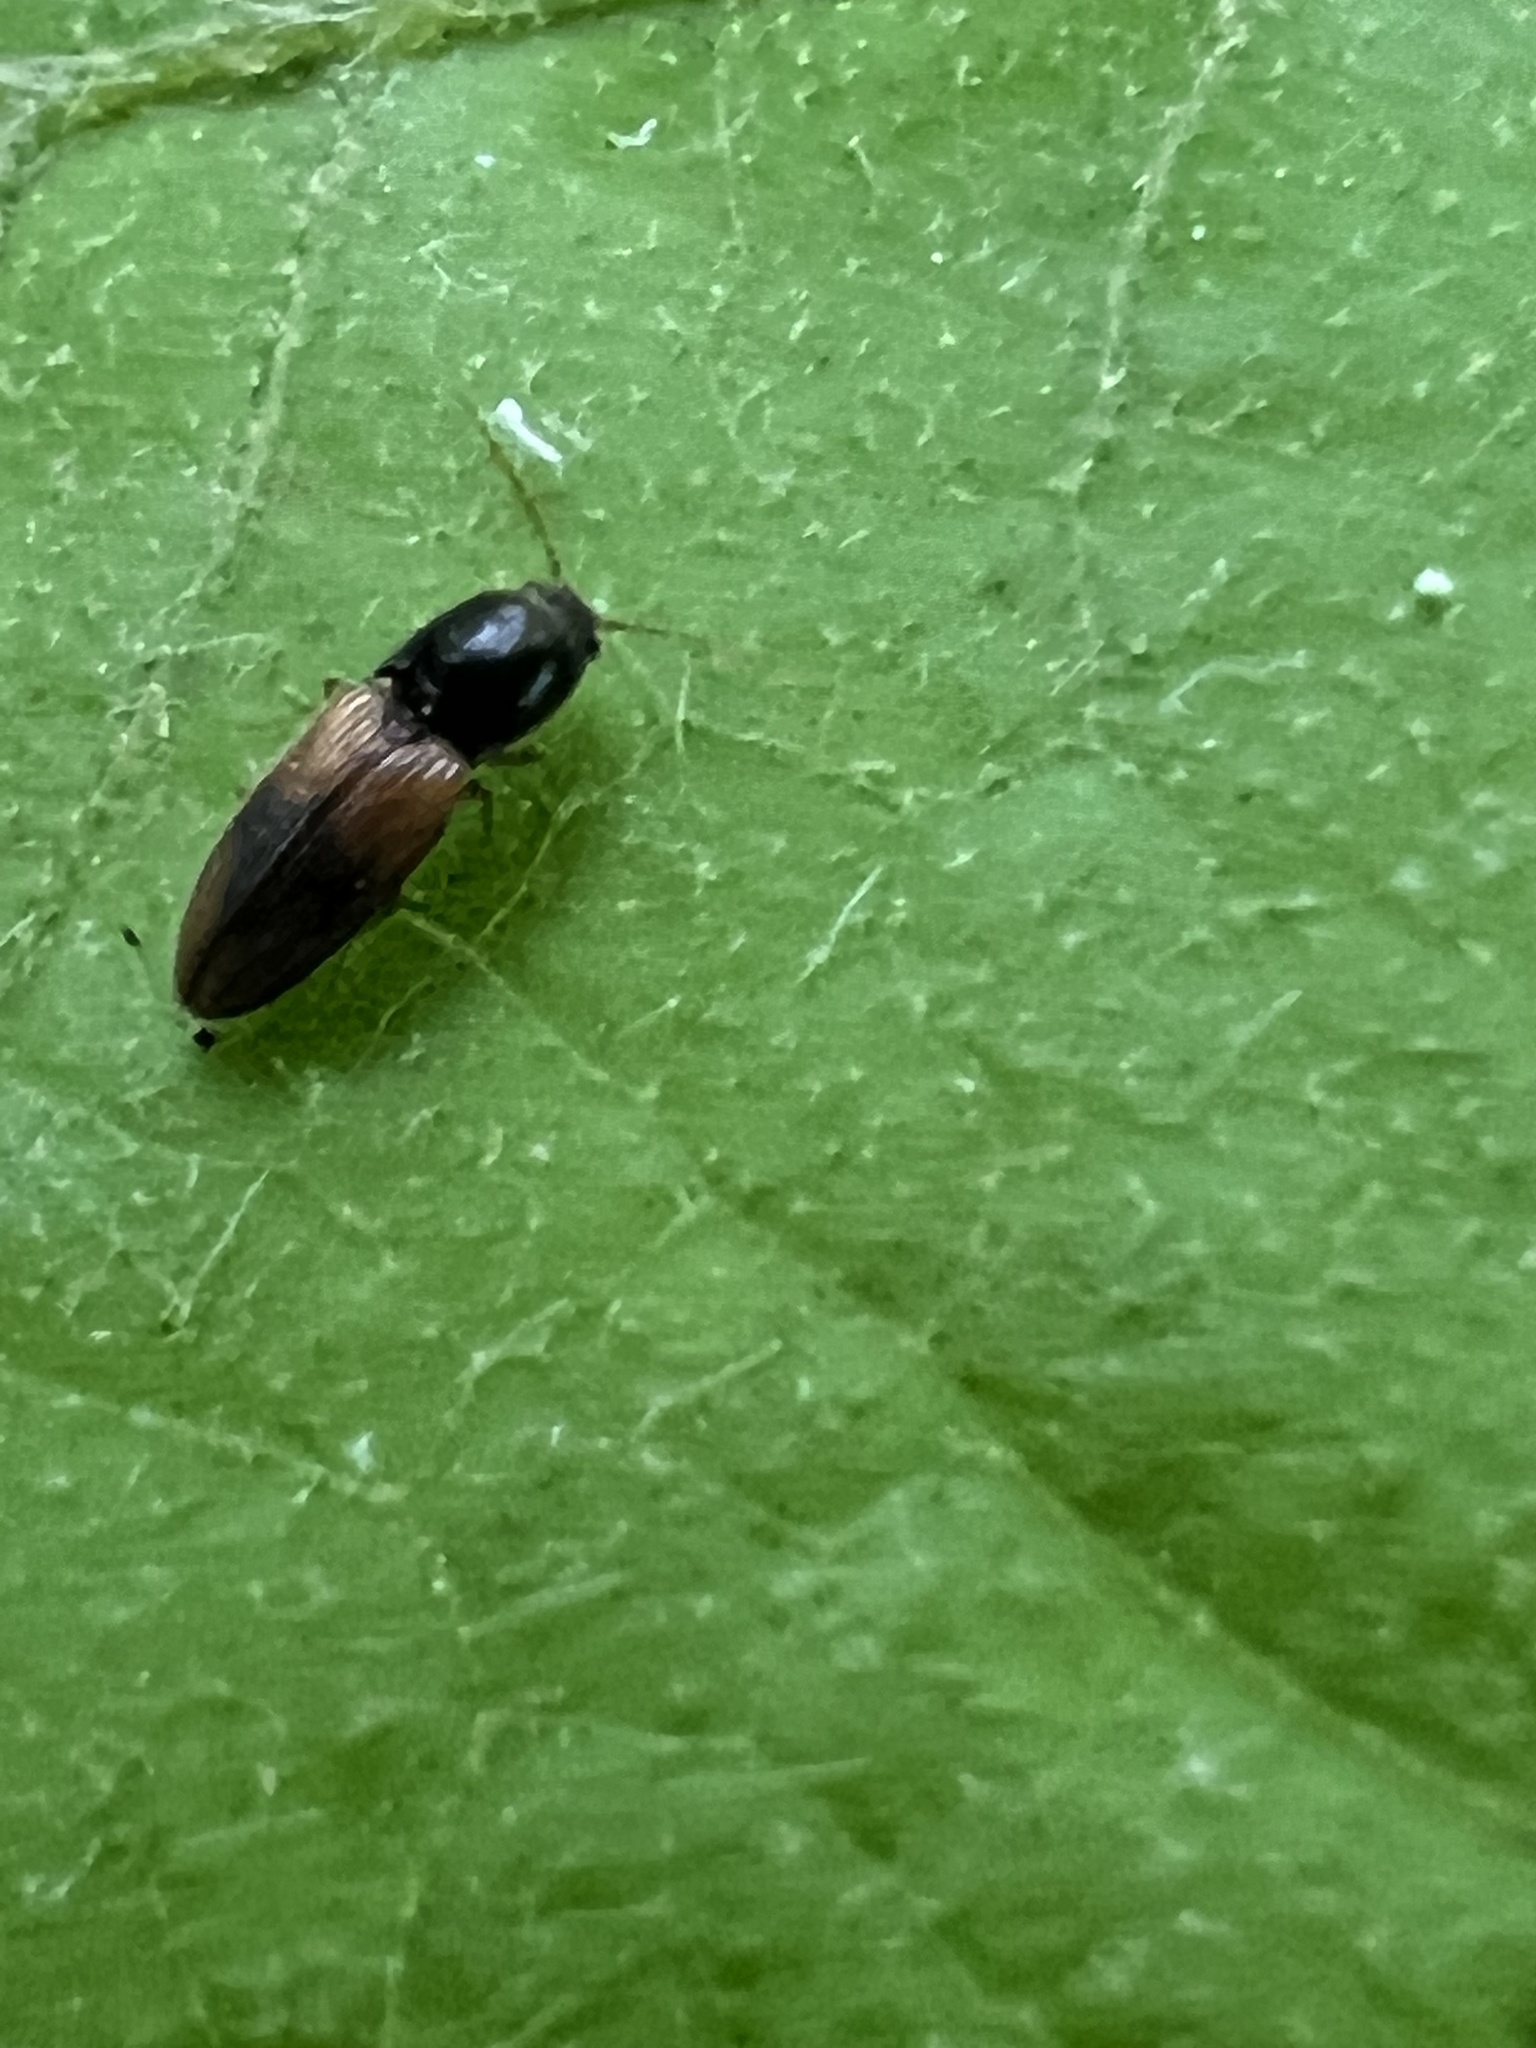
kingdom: Animalia
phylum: Arthropoda
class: Insecta
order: Coleoptera
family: Elateridae
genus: Horistonotus
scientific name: Horistonotus curiatus
